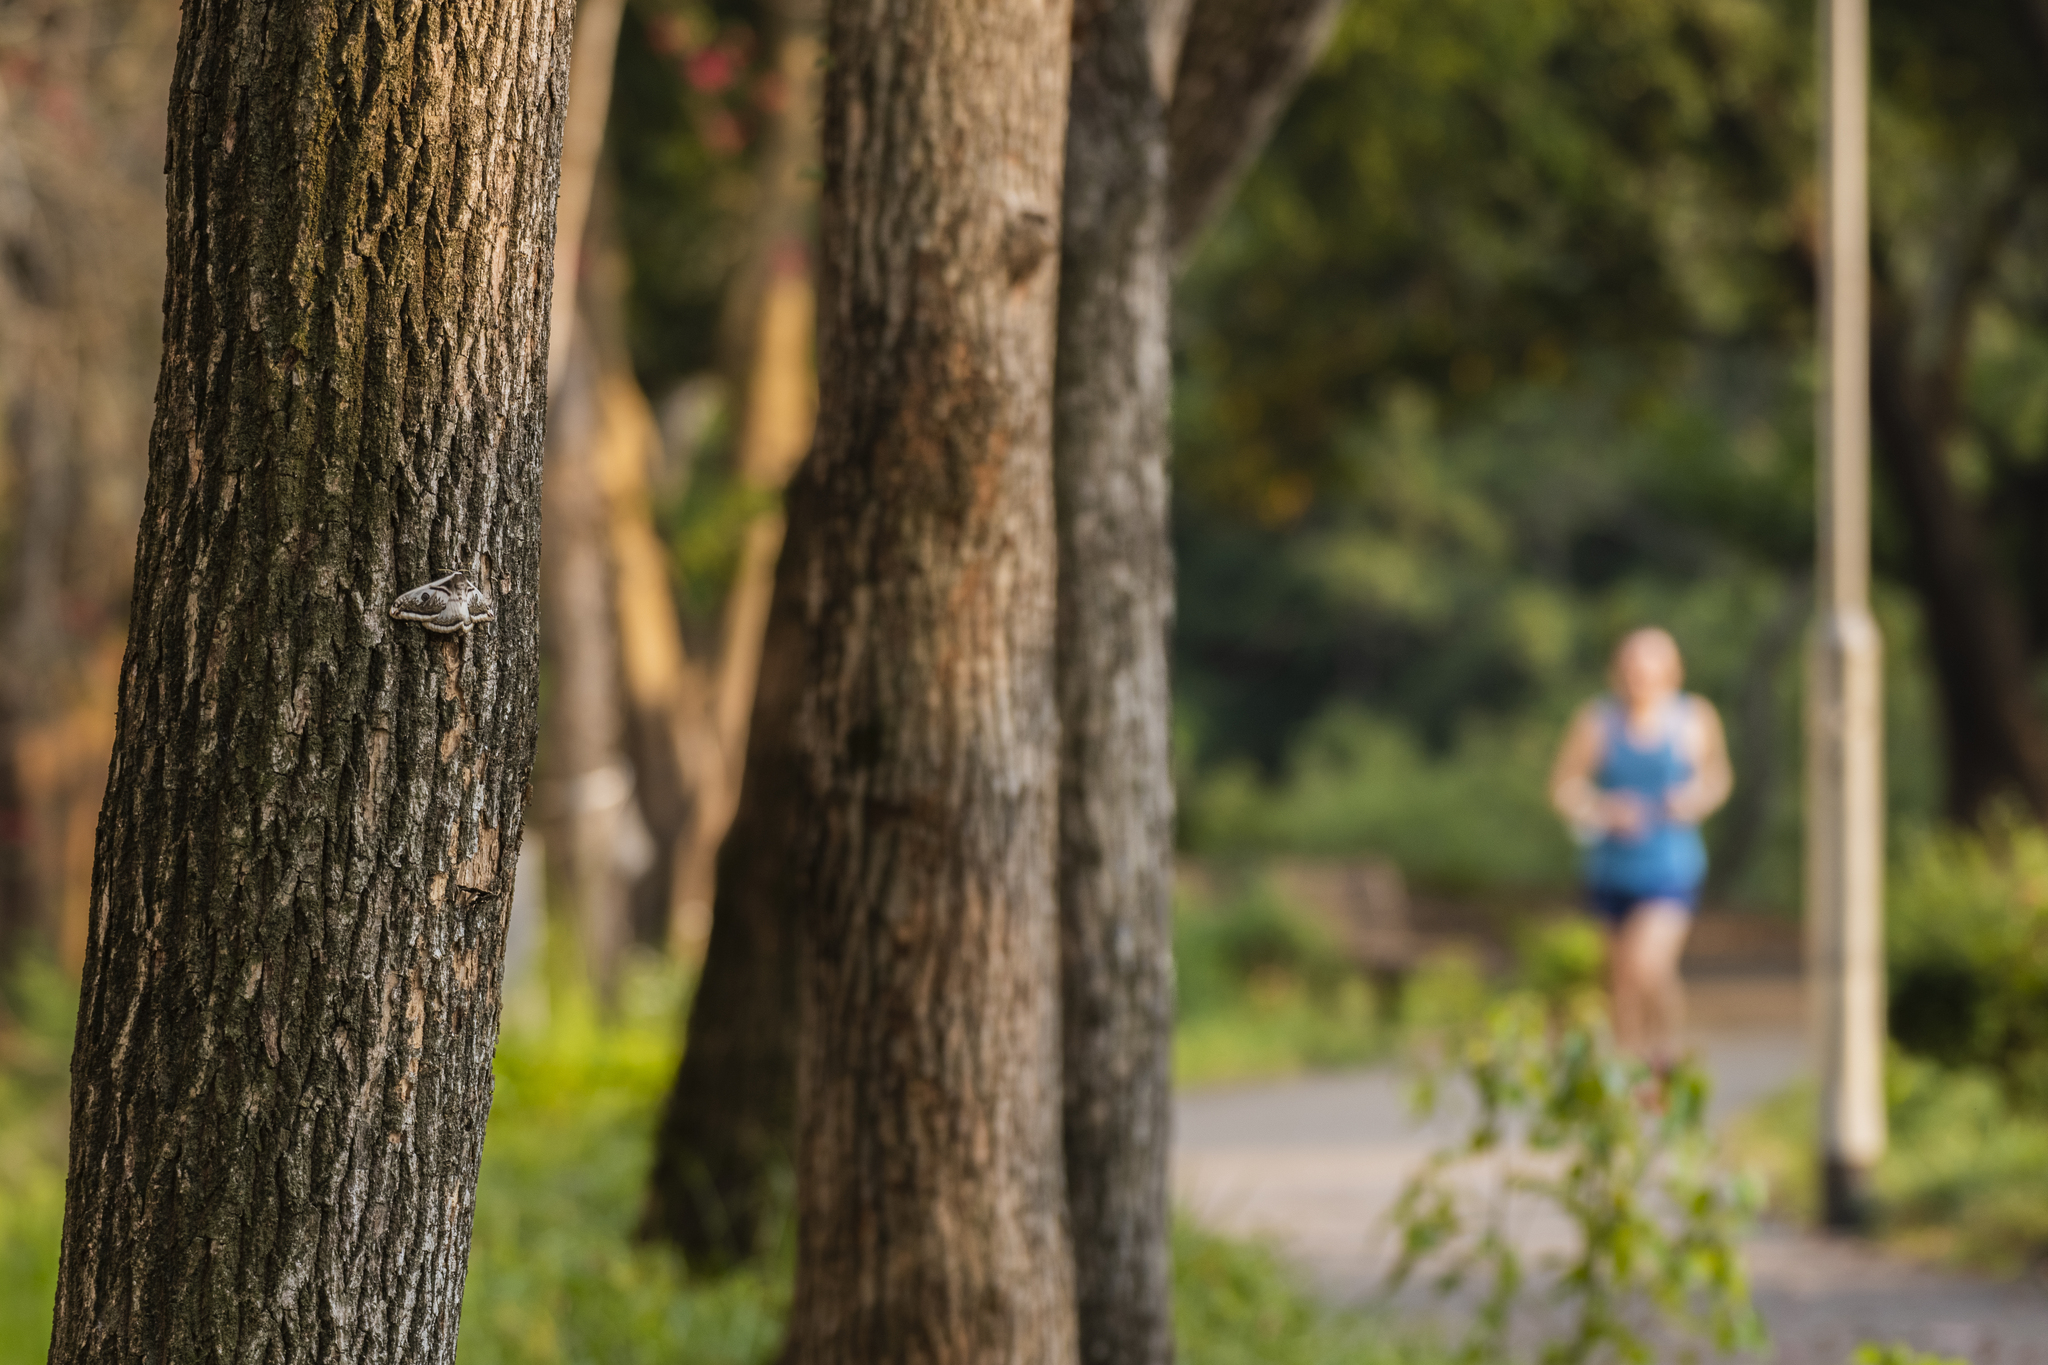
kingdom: Animalia
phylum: Arthropoda
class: Insecta
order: Lepidoptera
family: Saturniidae
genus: Saturnia
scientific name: Saturnia pyretorum
